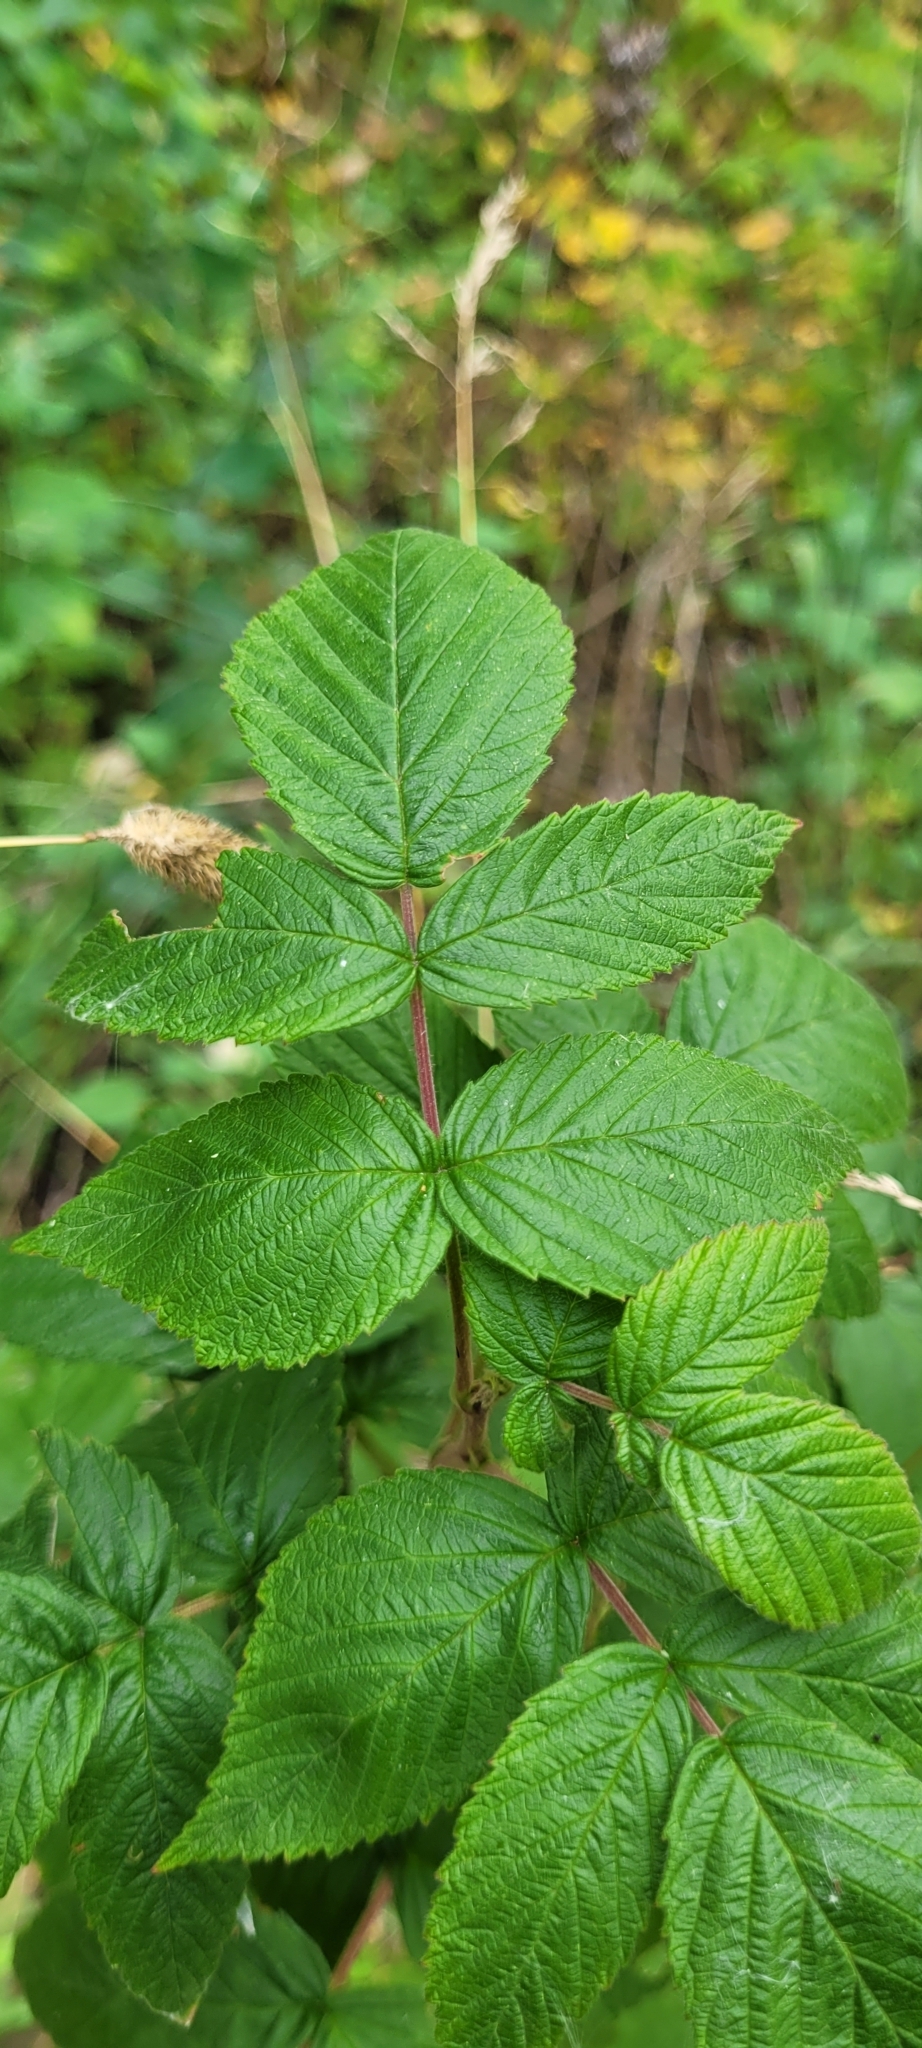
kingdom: Plantae
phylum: Tracheophyta
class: Magnoliopsida
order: Rosales
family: Rosaceae
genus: Rubus
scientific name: Rubus idaeus
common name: Raspberry
